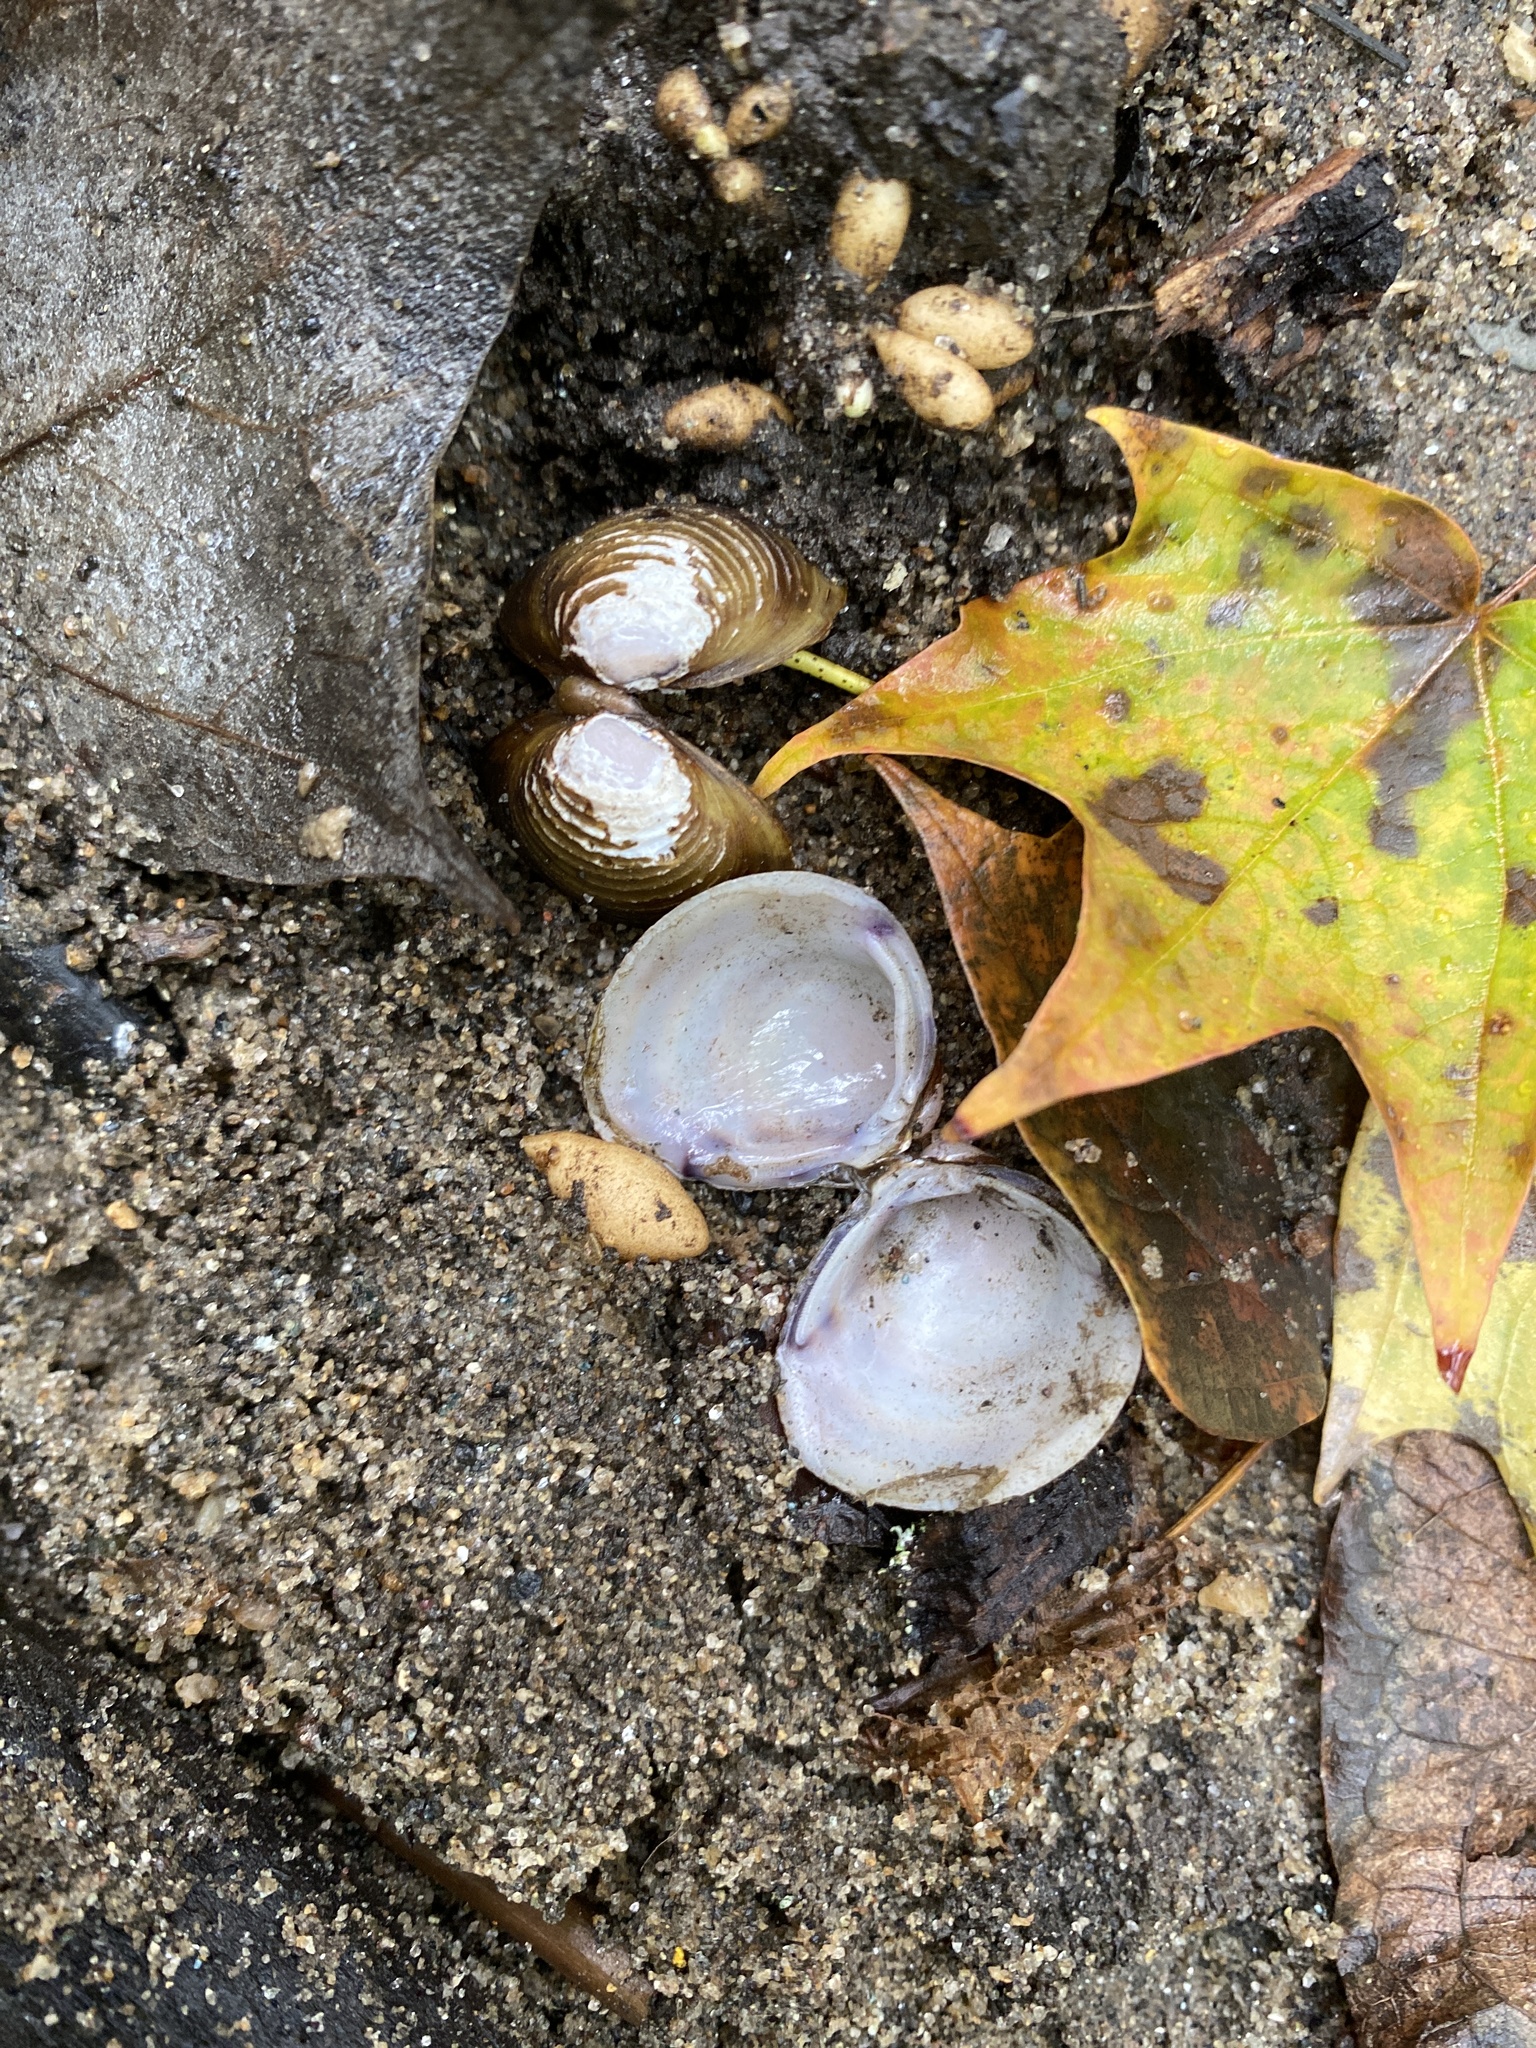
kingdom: Animalia
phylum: Mollusca
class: Bivalvia
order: Venerida
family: Cyrenidae
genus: Corbicula
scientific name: Corbicula fluminea
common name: Asian clam
